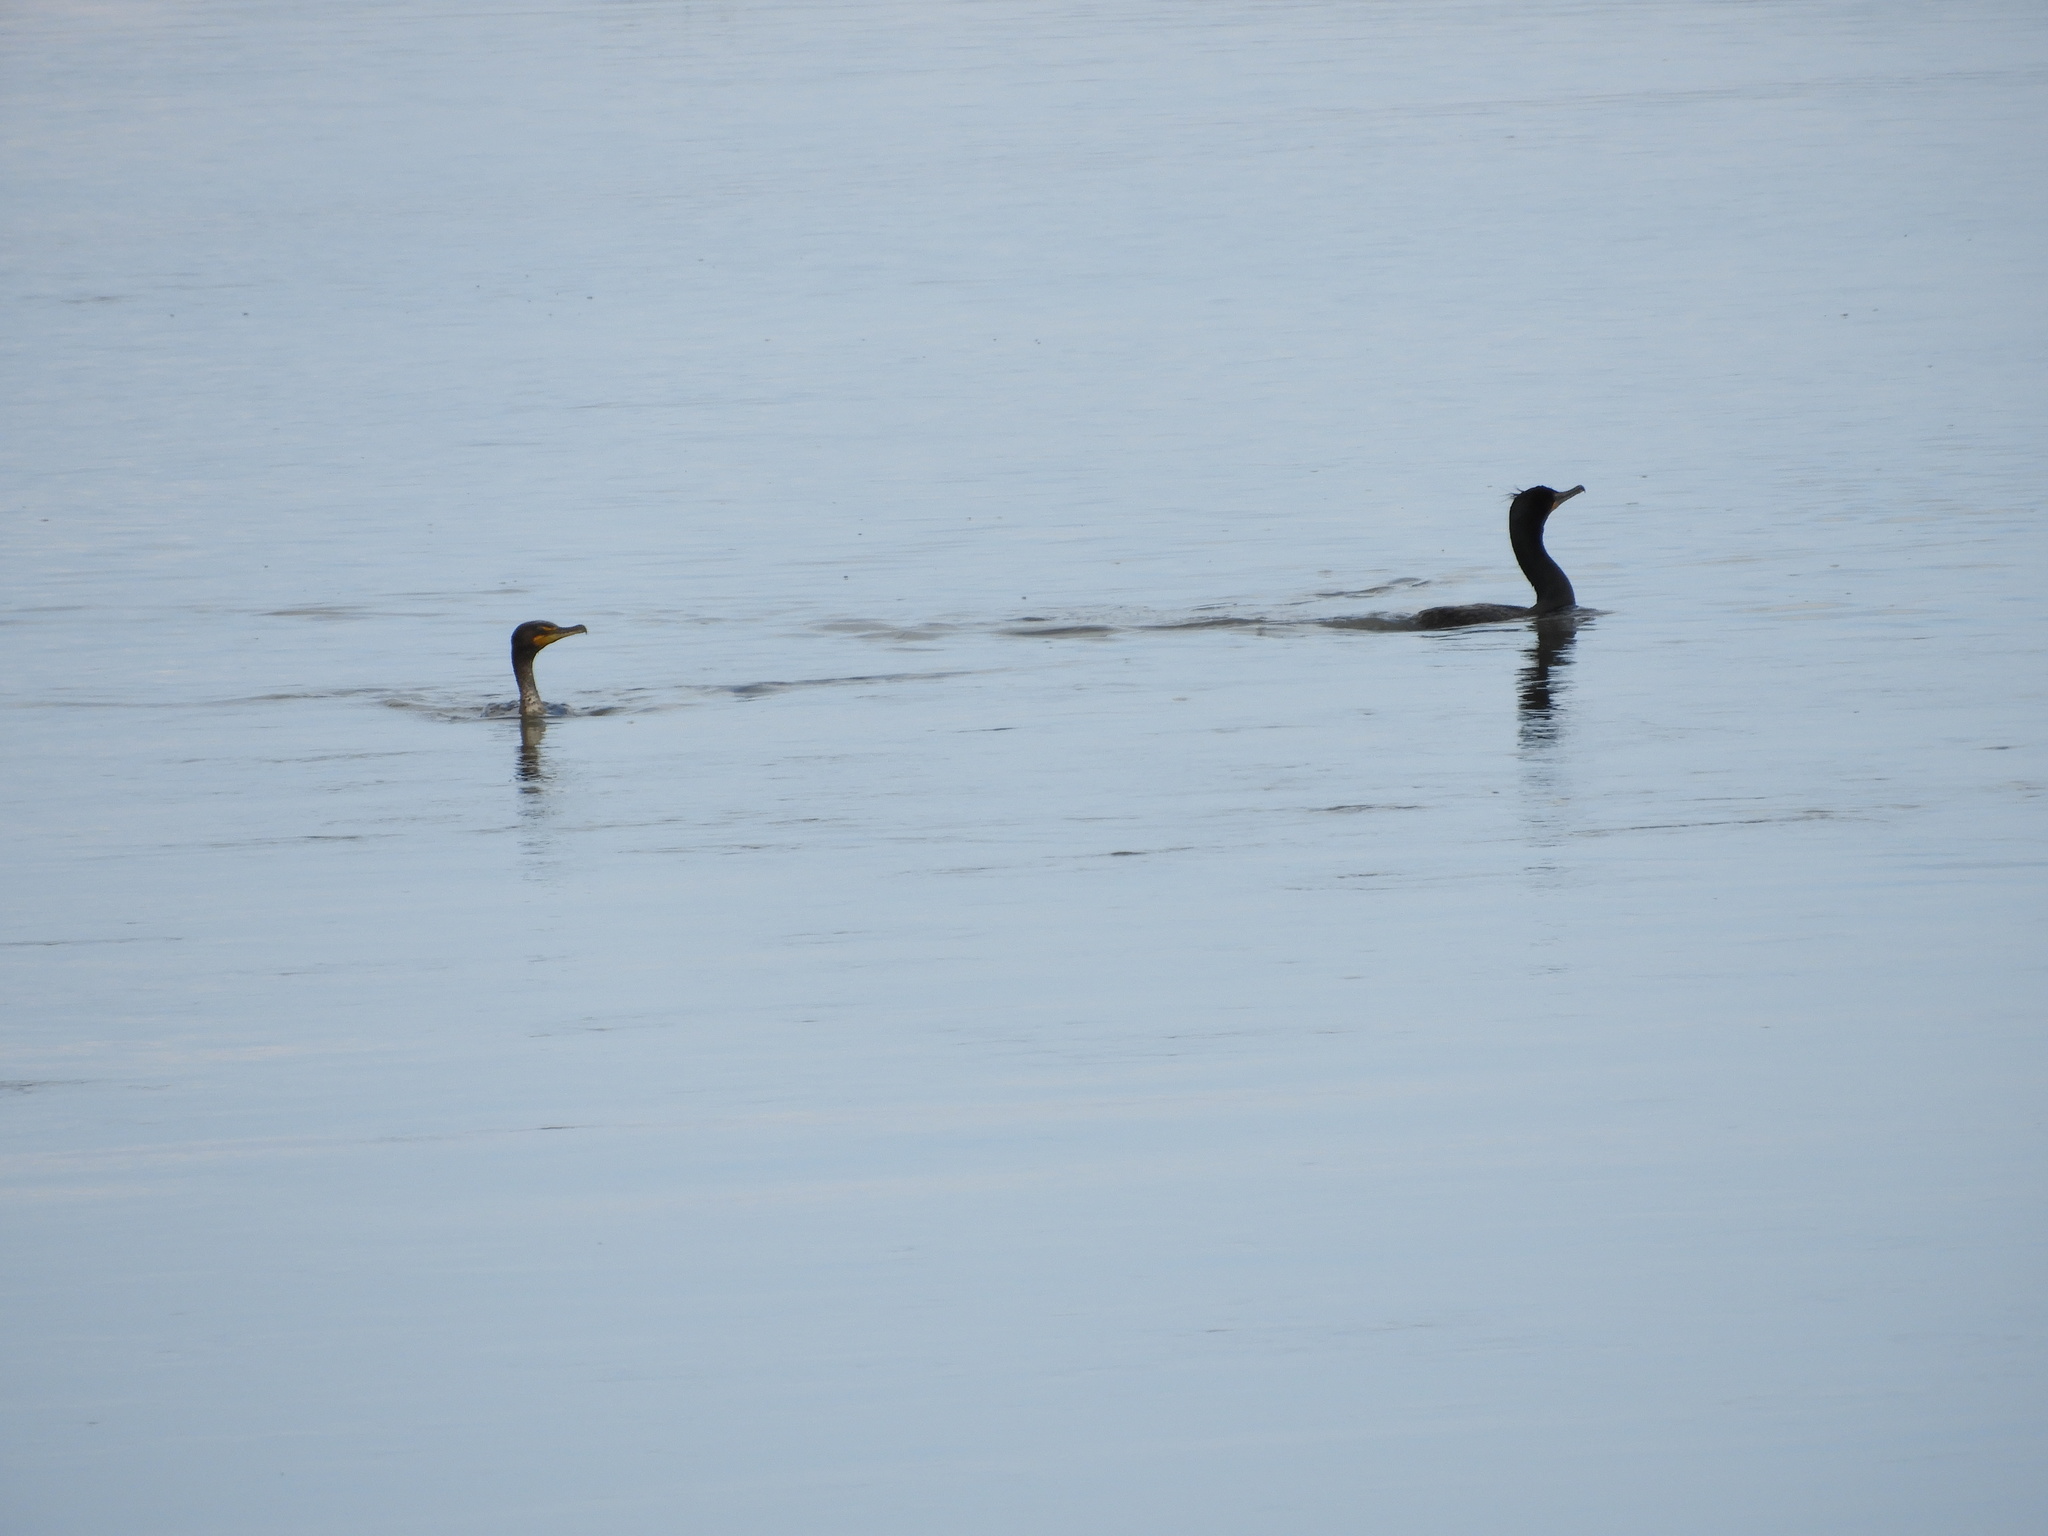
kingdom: Animalia
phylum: Chordata
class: Aves
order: Suliformes
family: Phalacrocoracidae
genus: Phalacrocorax
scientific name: Phalacrocorax auritus
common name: Double-crested cormorant
